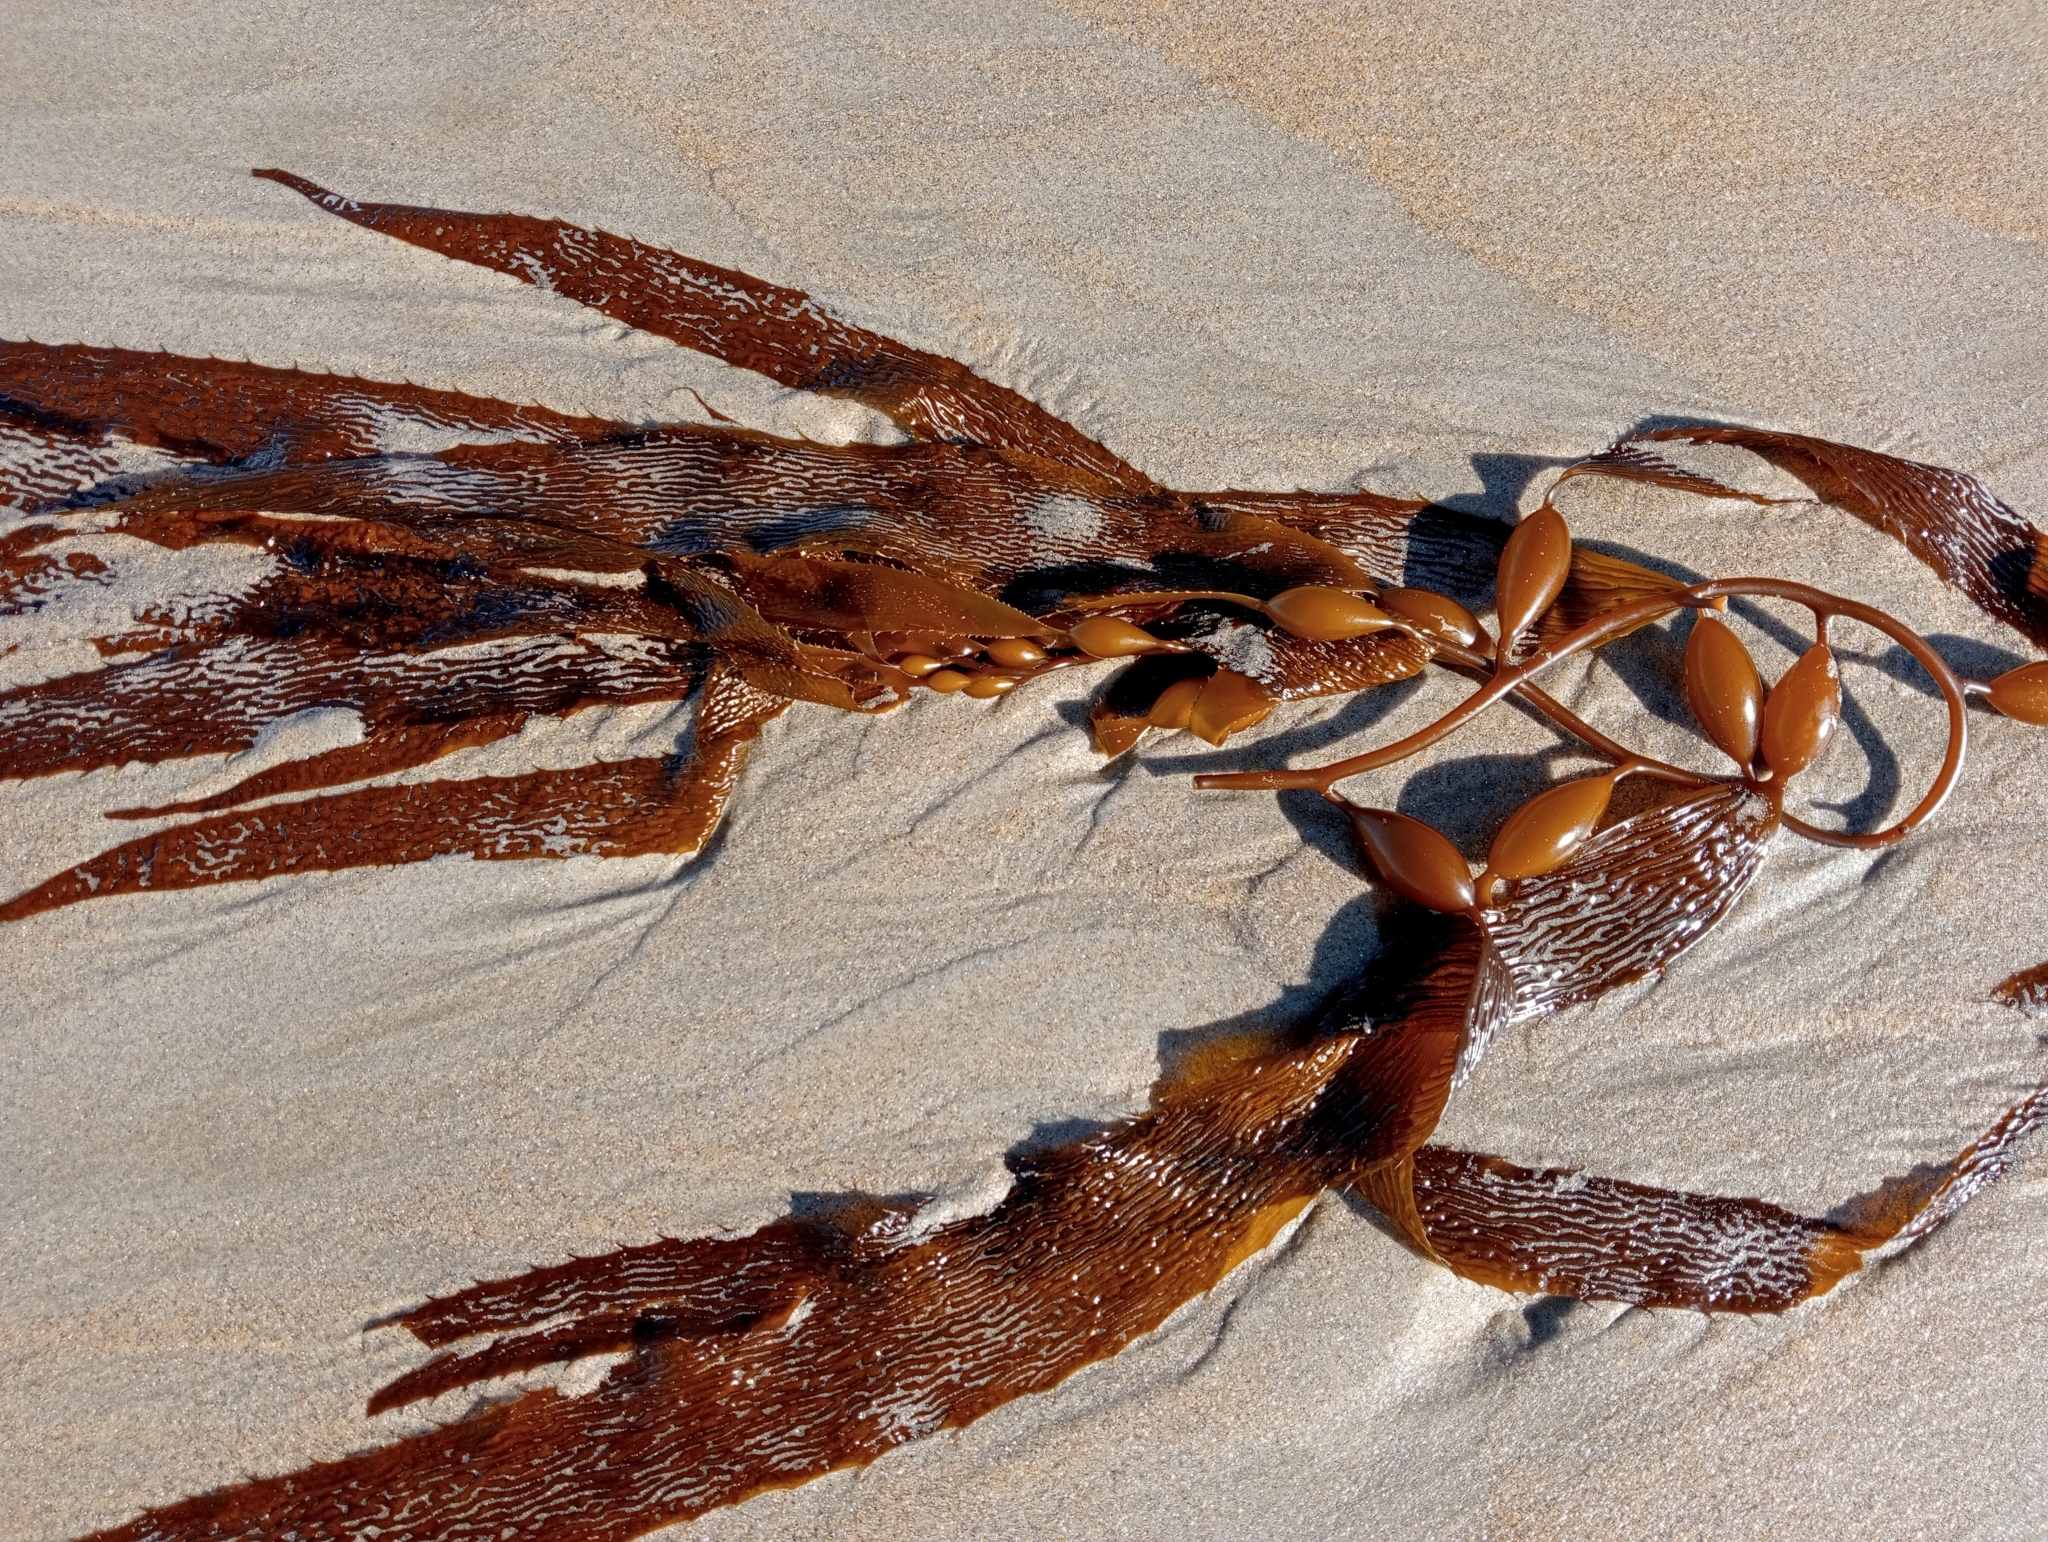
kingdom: Chromista
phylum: Ochrophyta
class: Phaeophyceae
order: Laminariales
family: Laminariaceae
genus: Macrocystis
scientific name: Macrocystis pyrifera
